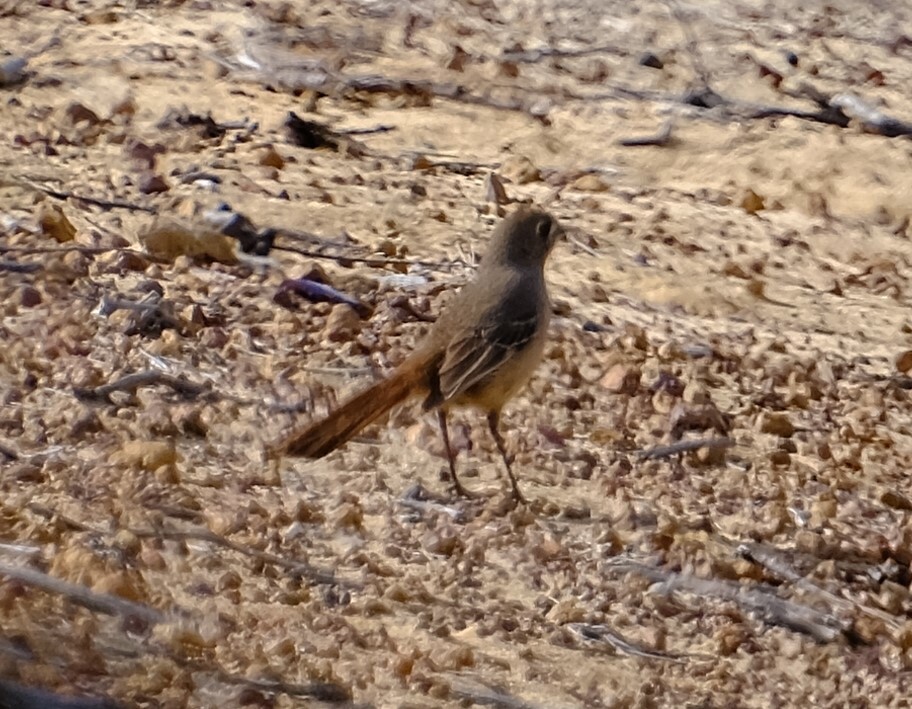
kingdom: Animalia
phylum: Chordata
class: Aves
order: Passeriformes
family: Petroicidae
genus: Drymodes
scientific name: Drymodes brunneopygia
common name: Southern scrub robin
